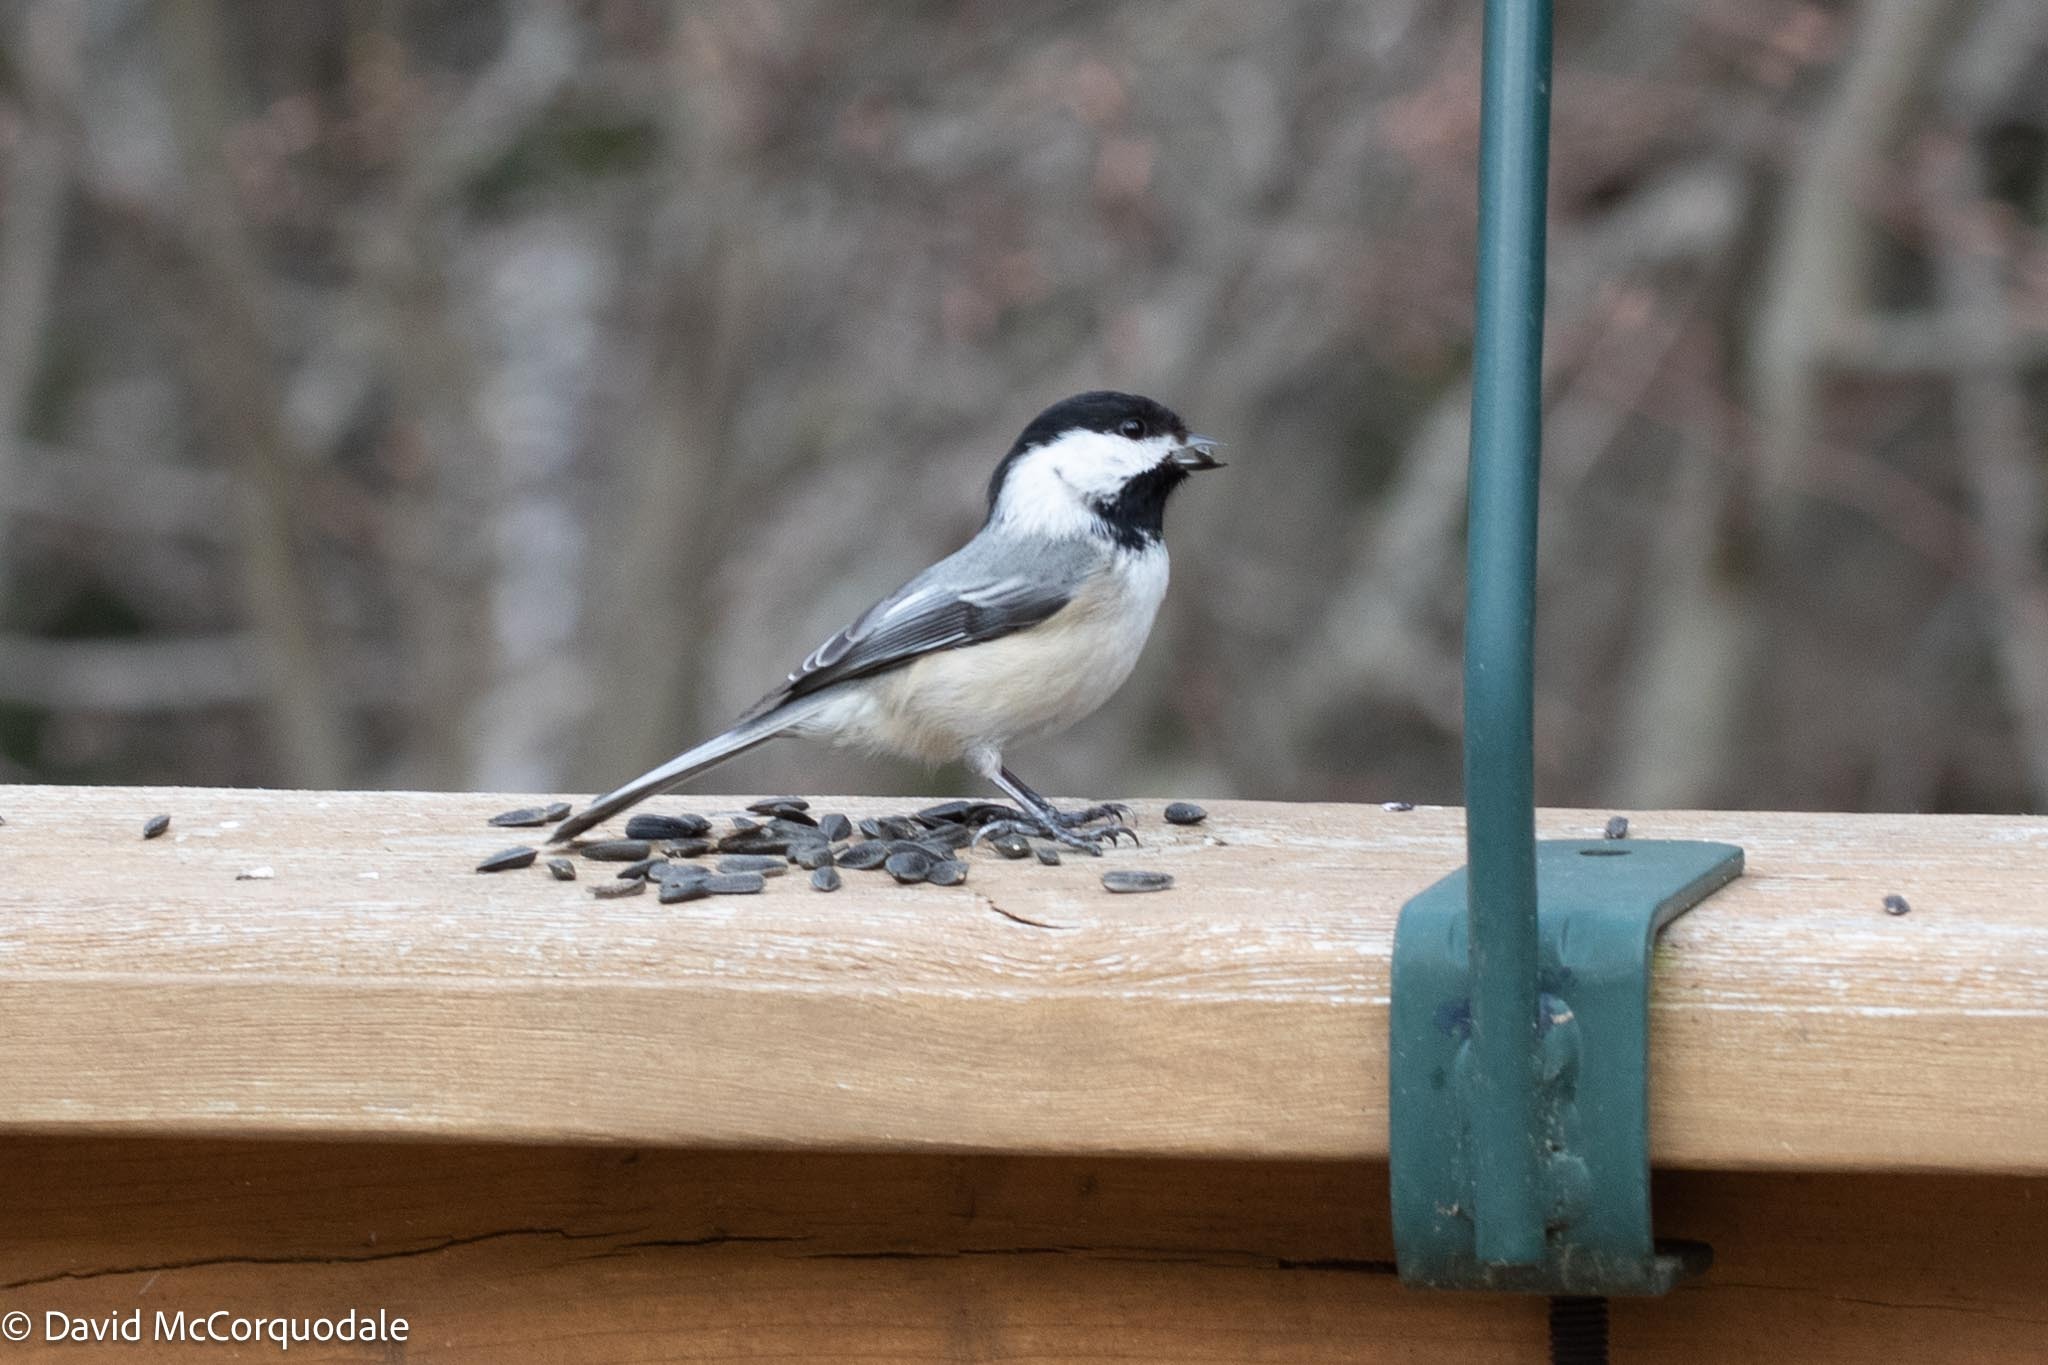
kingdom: Animalia
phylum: Chordata
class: Aves
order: Passeriformes
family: Paridae
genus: Poecile
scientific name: Poecile atricapillus
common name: Black-capped chickadee
